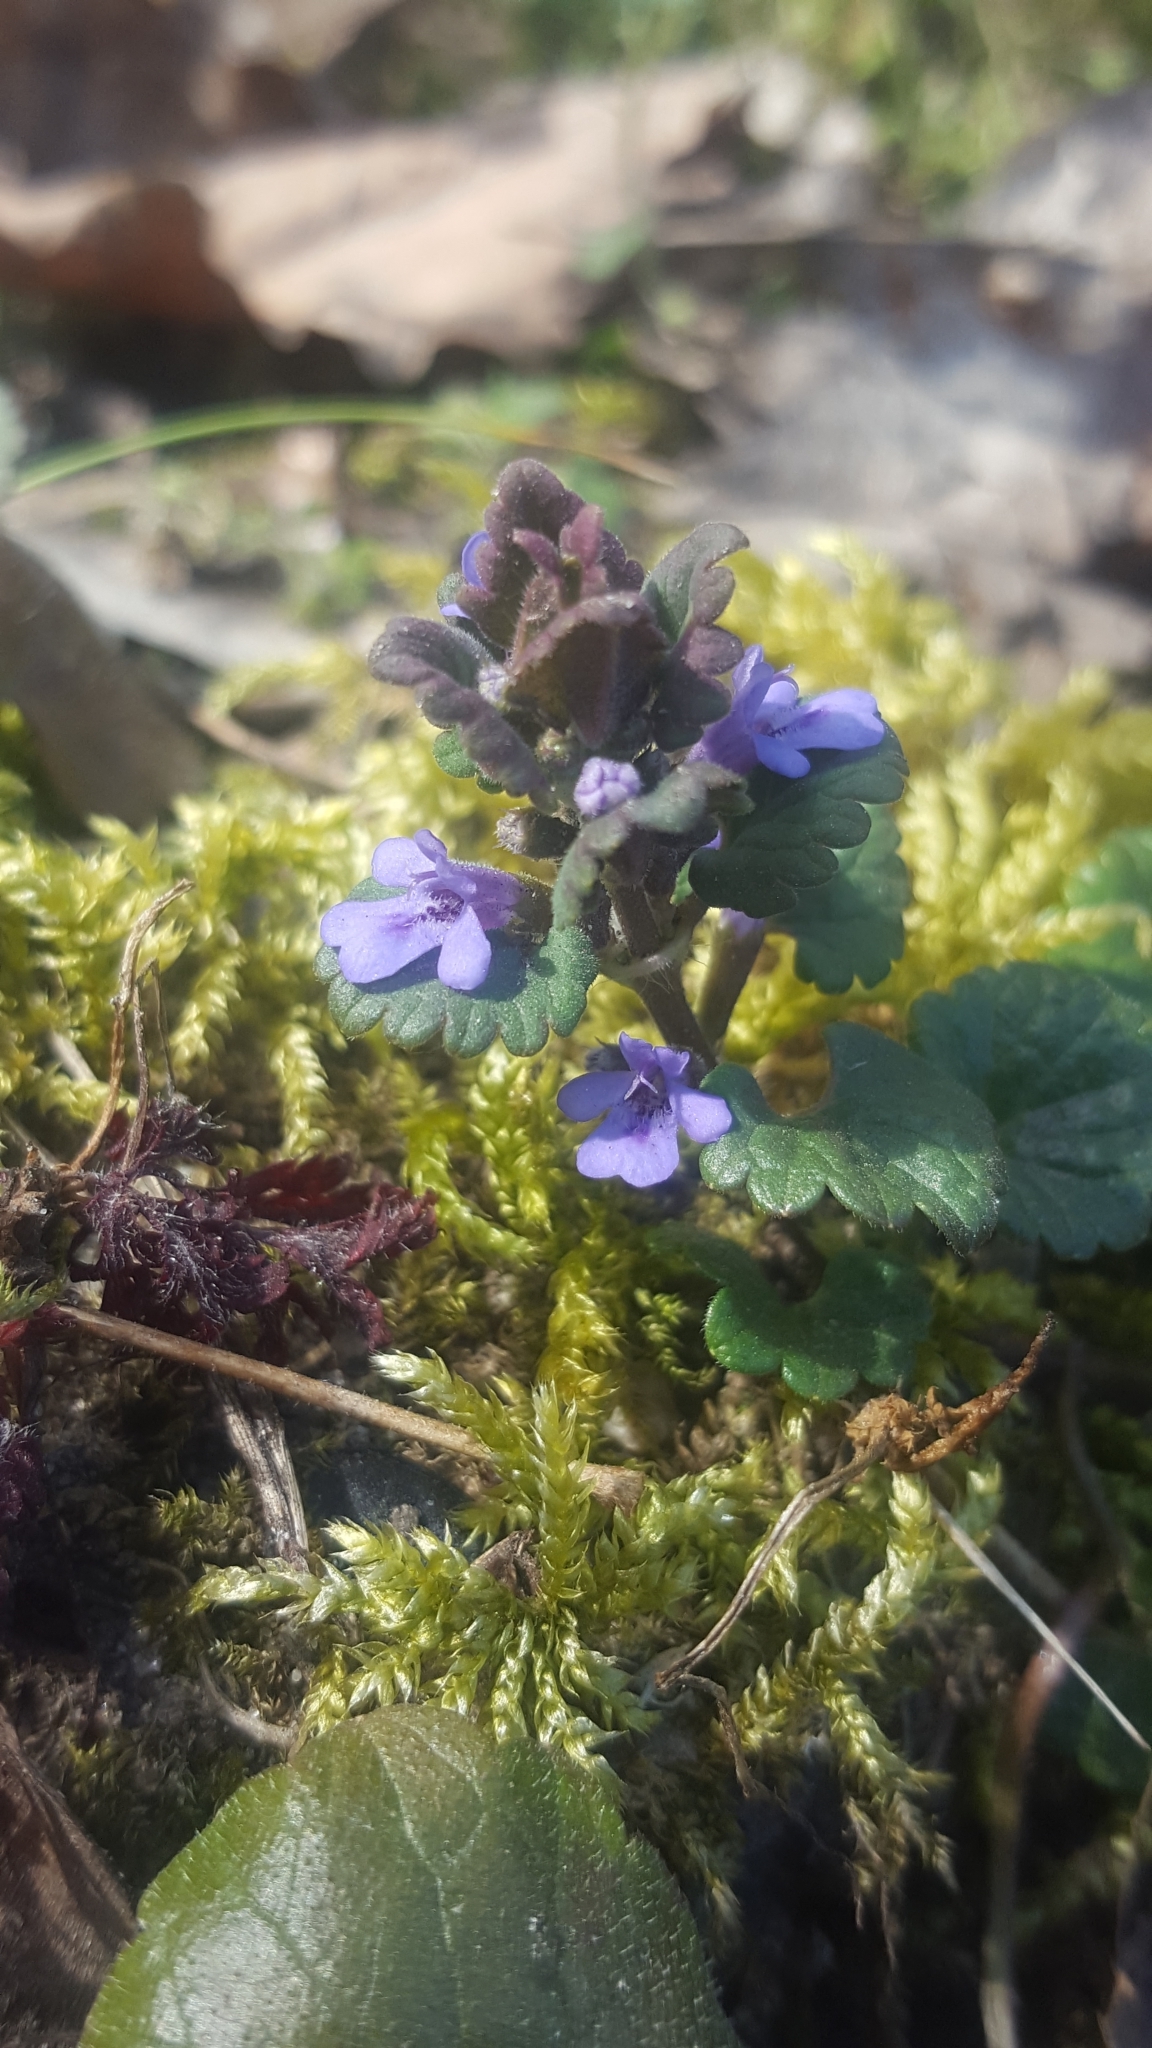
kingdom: Plantae
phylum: Tracheophyta
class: Magnoliopsida
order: Lamiales
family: Lamiaceae
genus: Glechoma
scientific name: Glechoma hederacea
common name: Ground ivy
